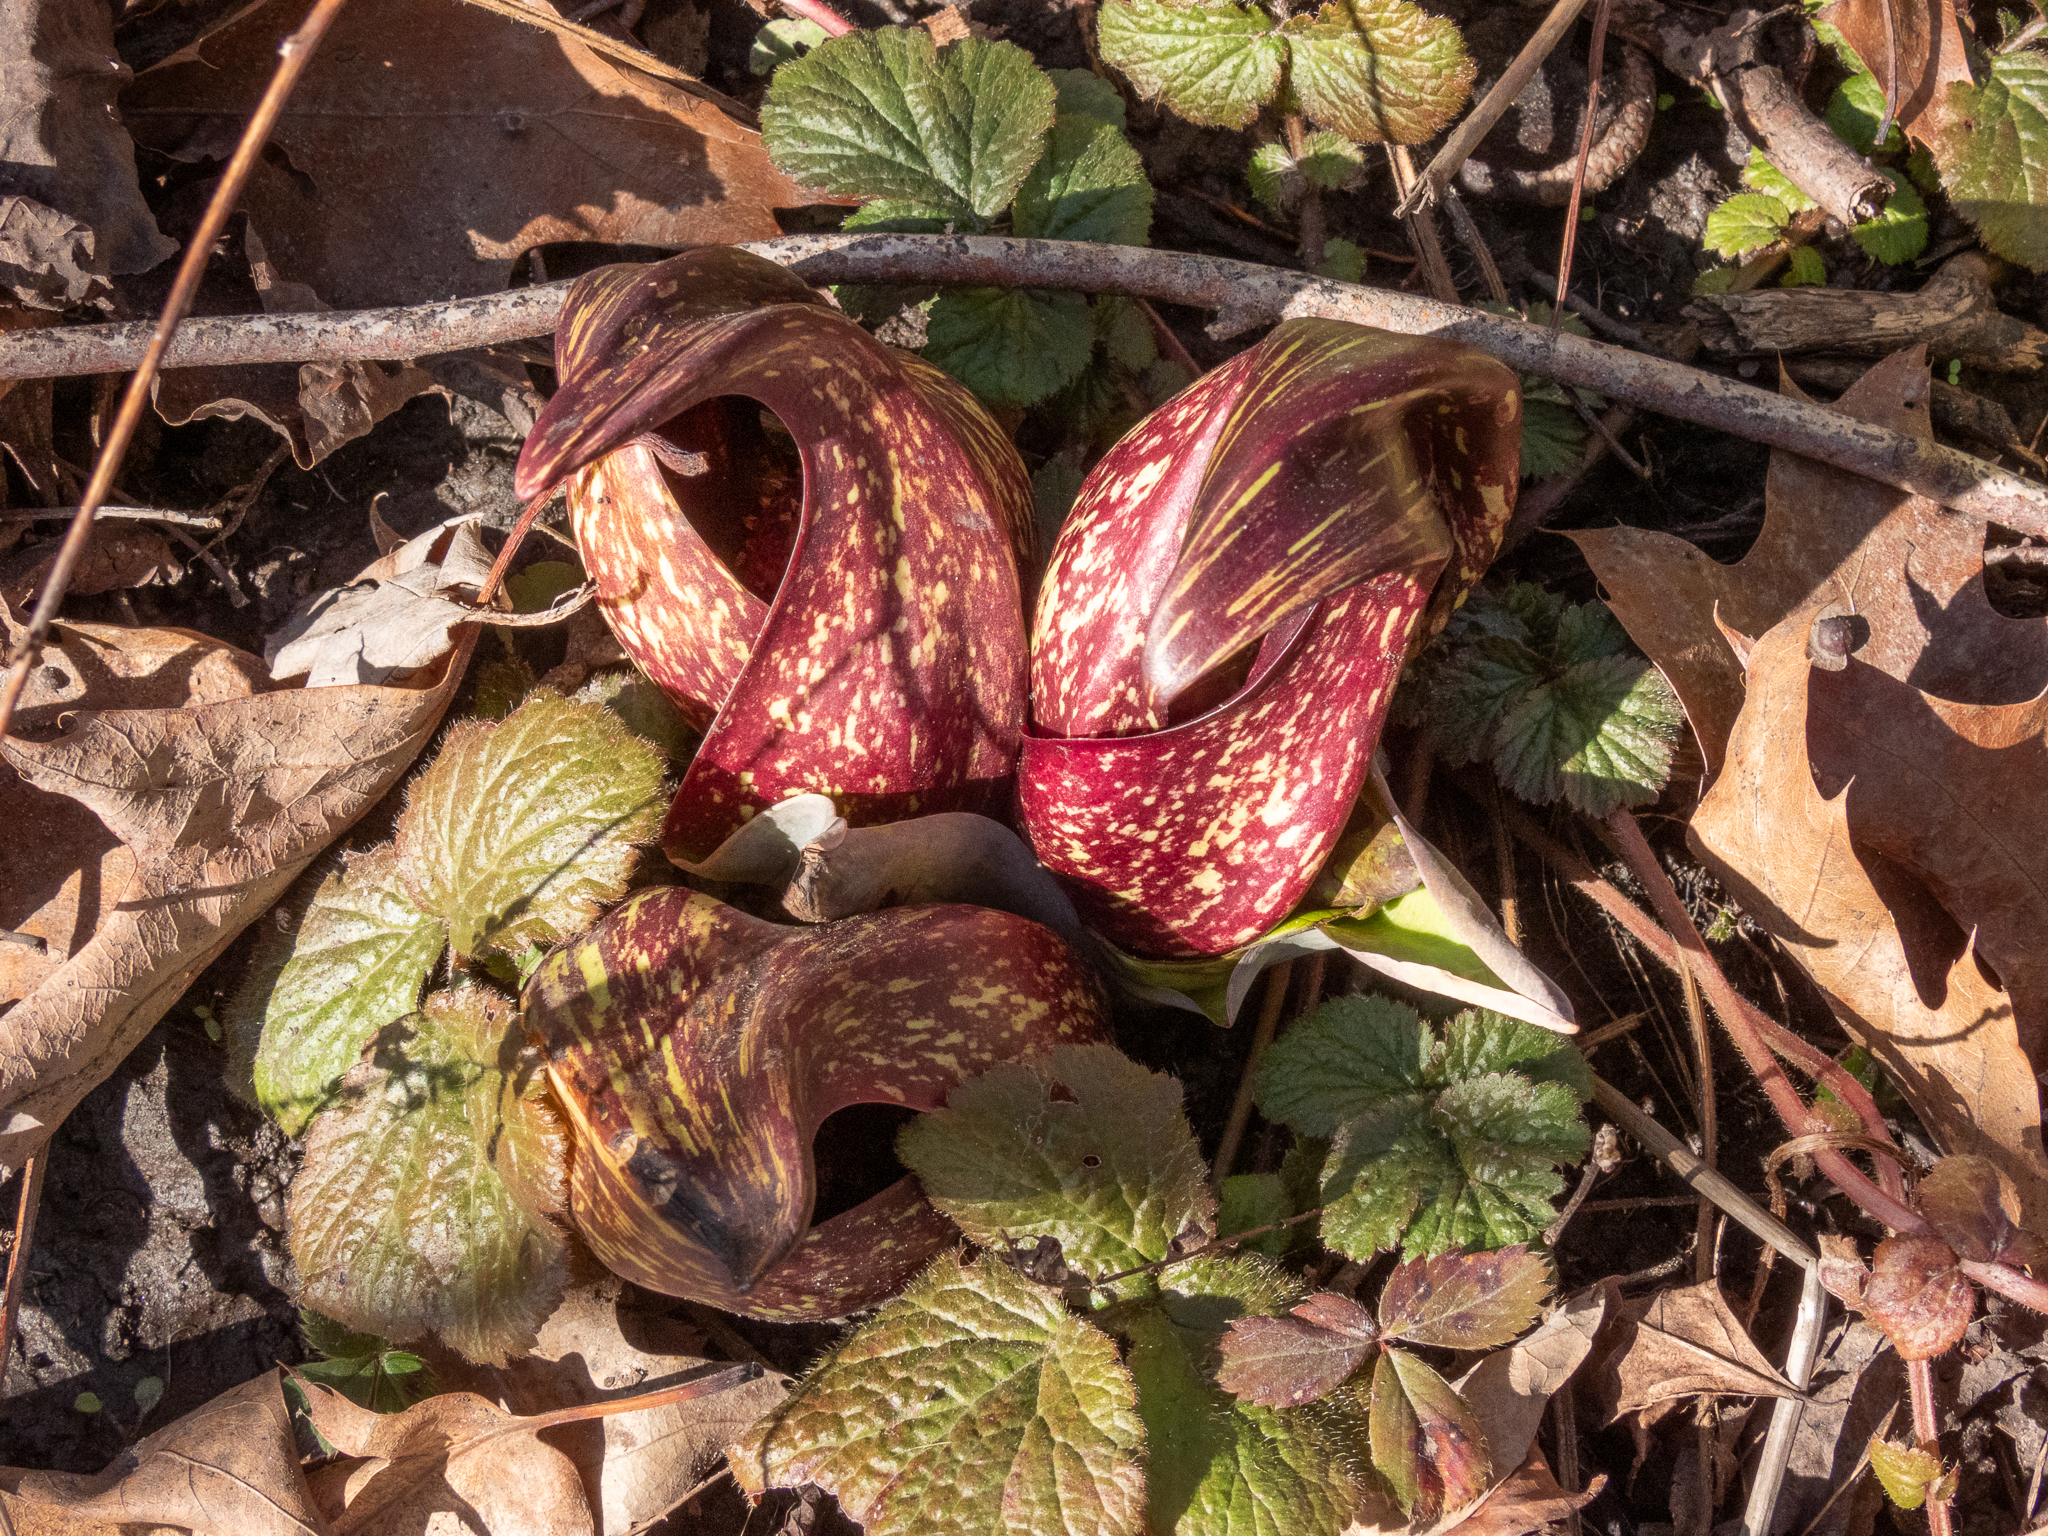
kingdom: Plantae
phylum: Tracheophyta
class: Liliopsida
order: Alismatales
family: Araceae
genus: Symplocarpus
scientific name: Symplocarpus foetidus
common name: Eastern skunk cabbage
